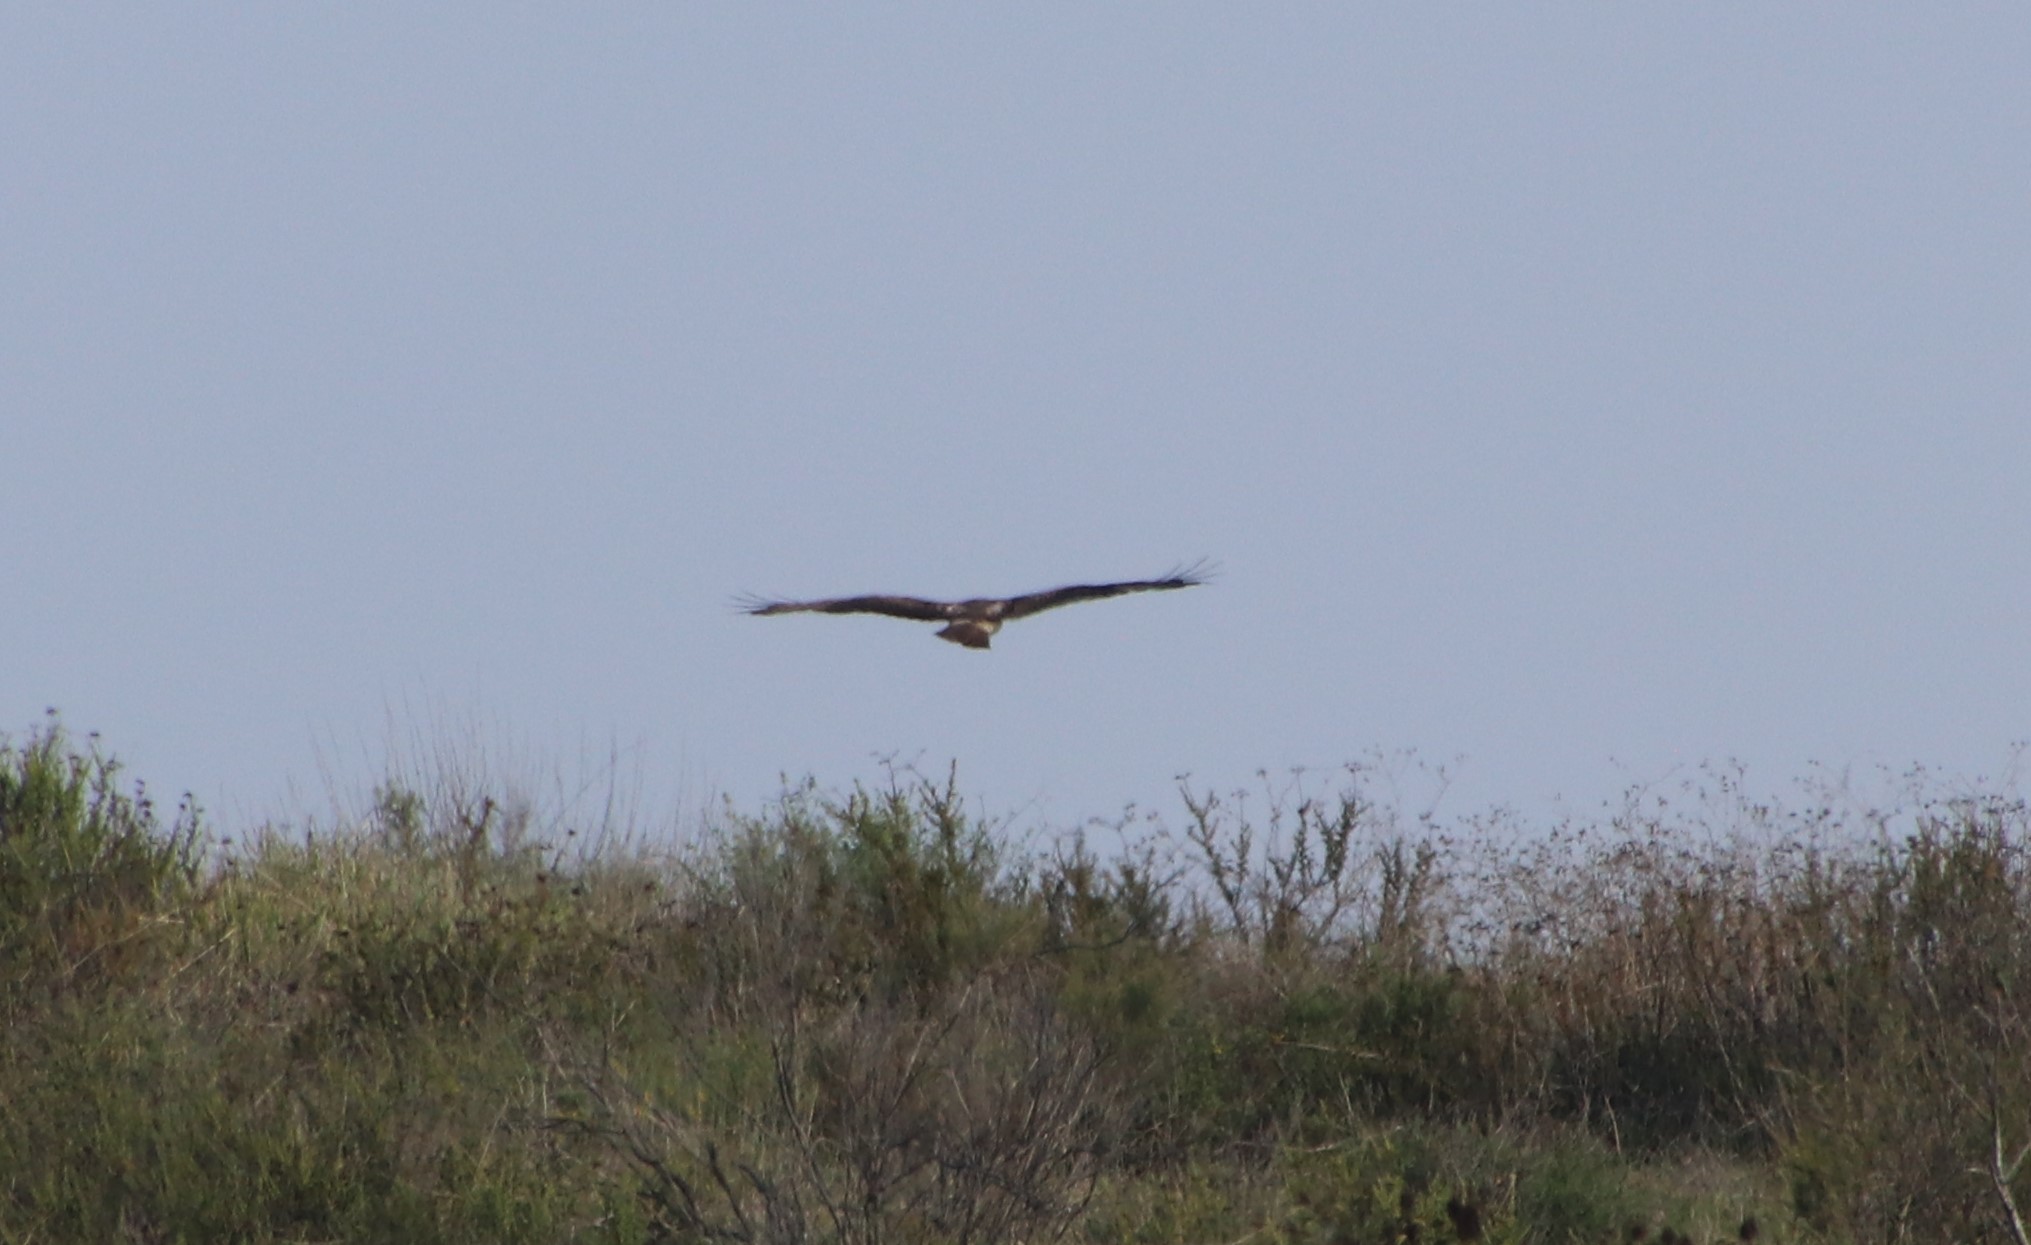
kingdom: Animalia
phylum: Chordata
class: Aves
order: Accipitriformes
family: Accipitridae
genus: Buteo
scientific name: Buteo jamaicensis
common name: Red-tailed hawk
